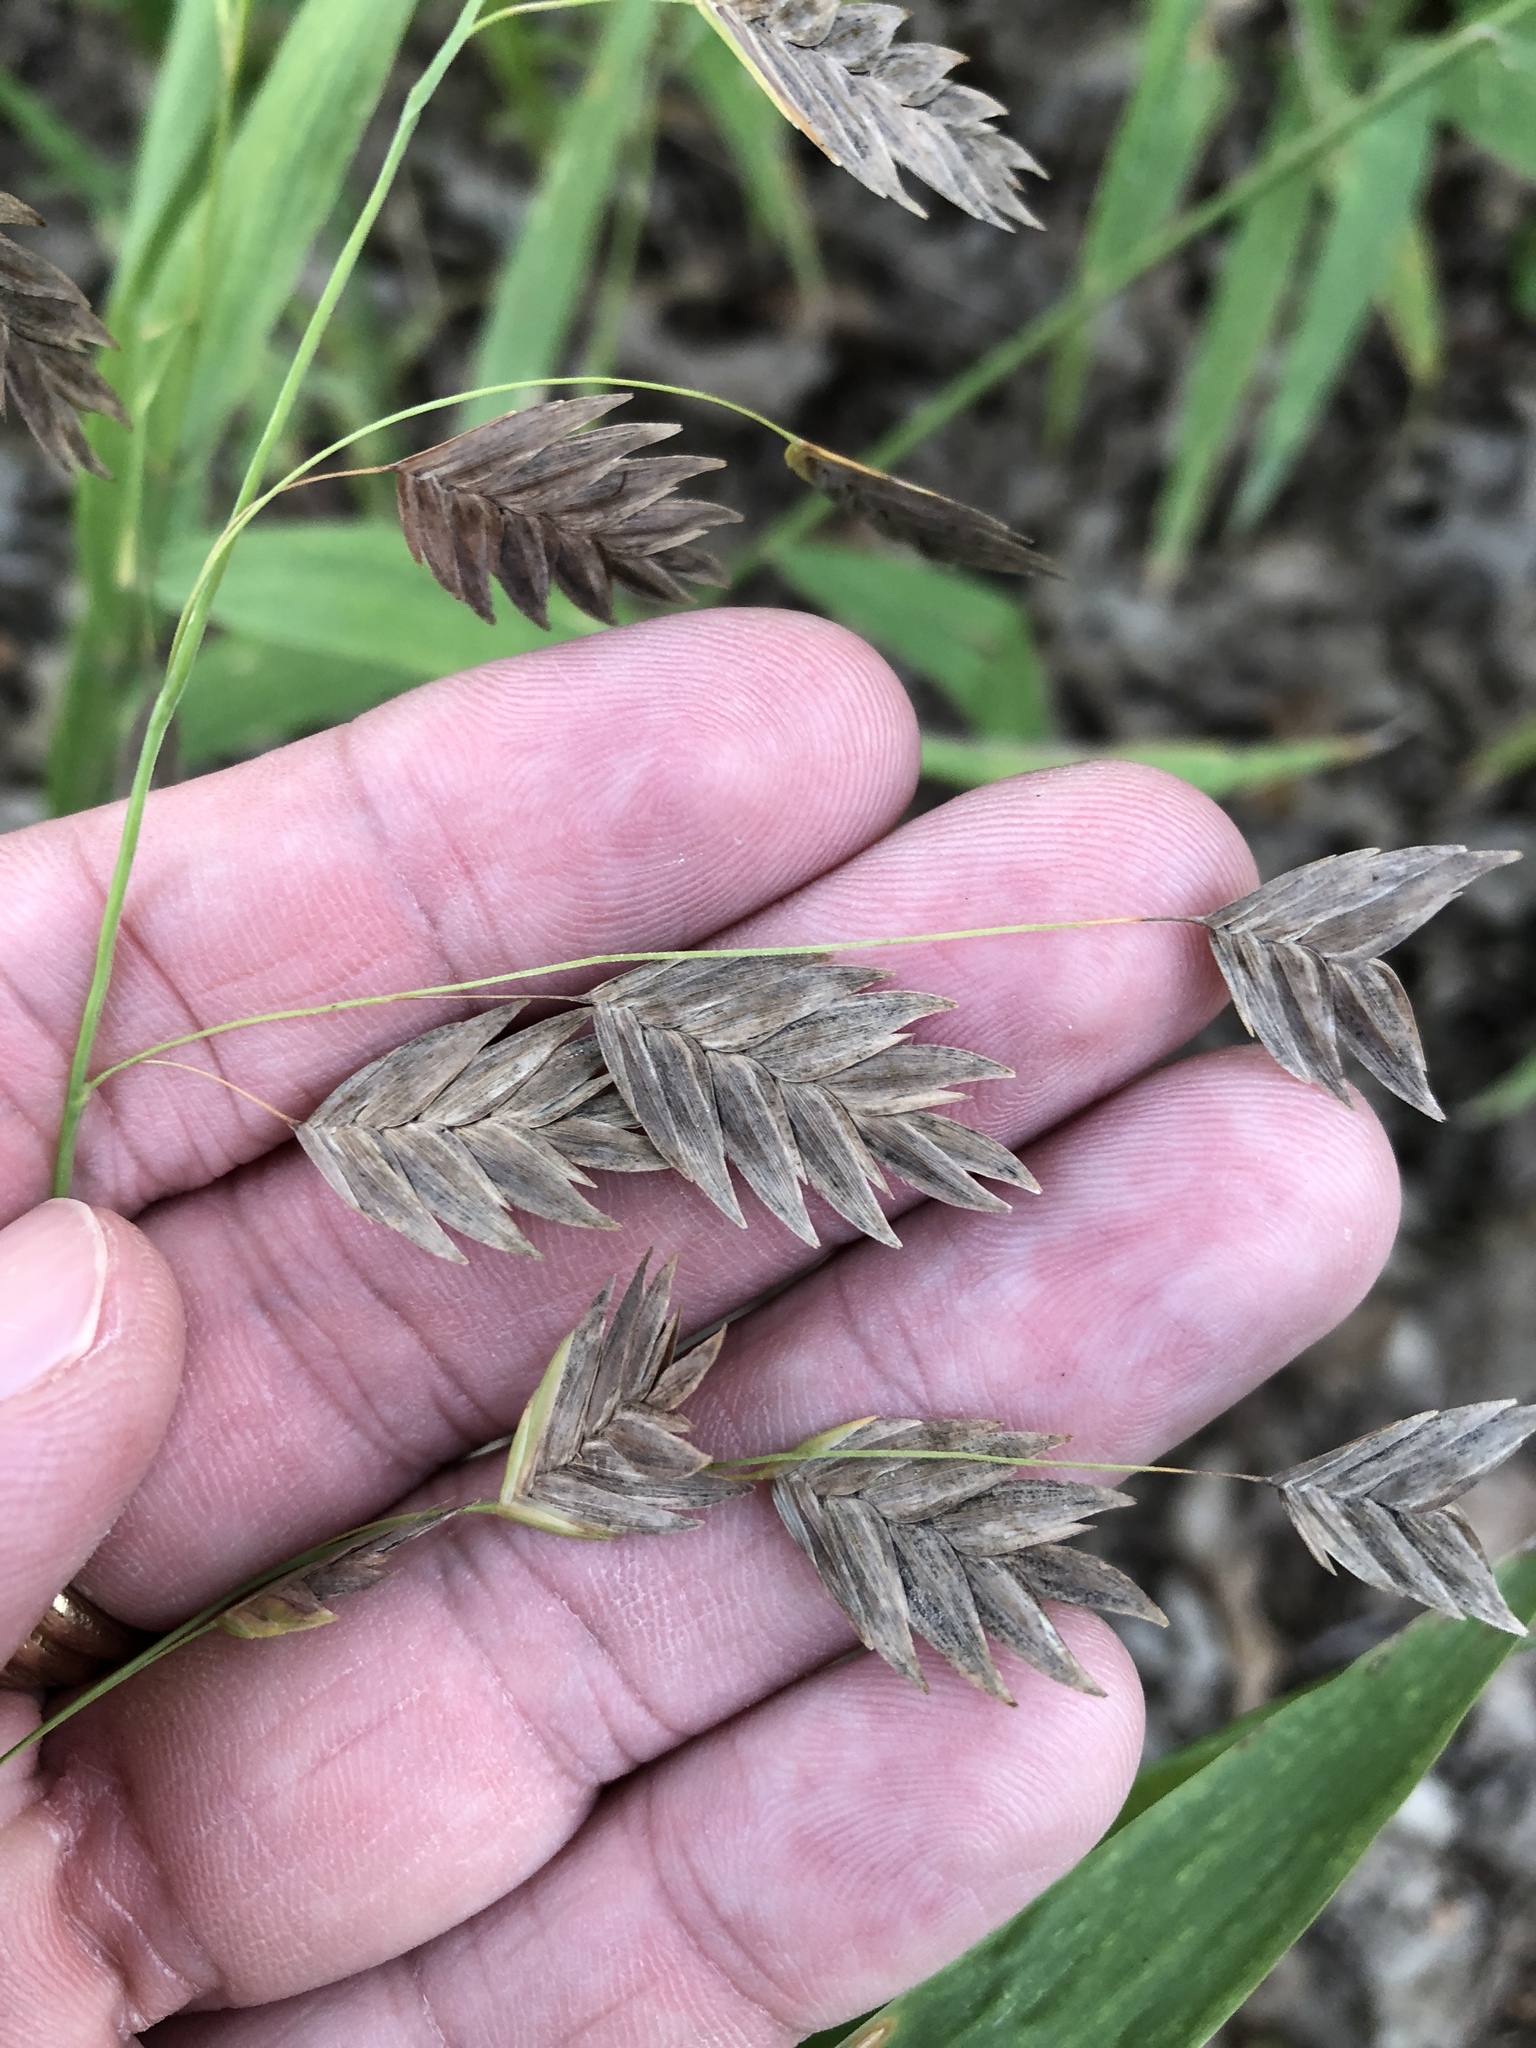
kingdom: Plantae
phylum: Tracheophyta
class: Liliopsida
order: Poales
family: Poaceae
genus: Chasmanthium
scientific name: Chasmanthium latifolium
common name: Broad-leaved chasmanthium
